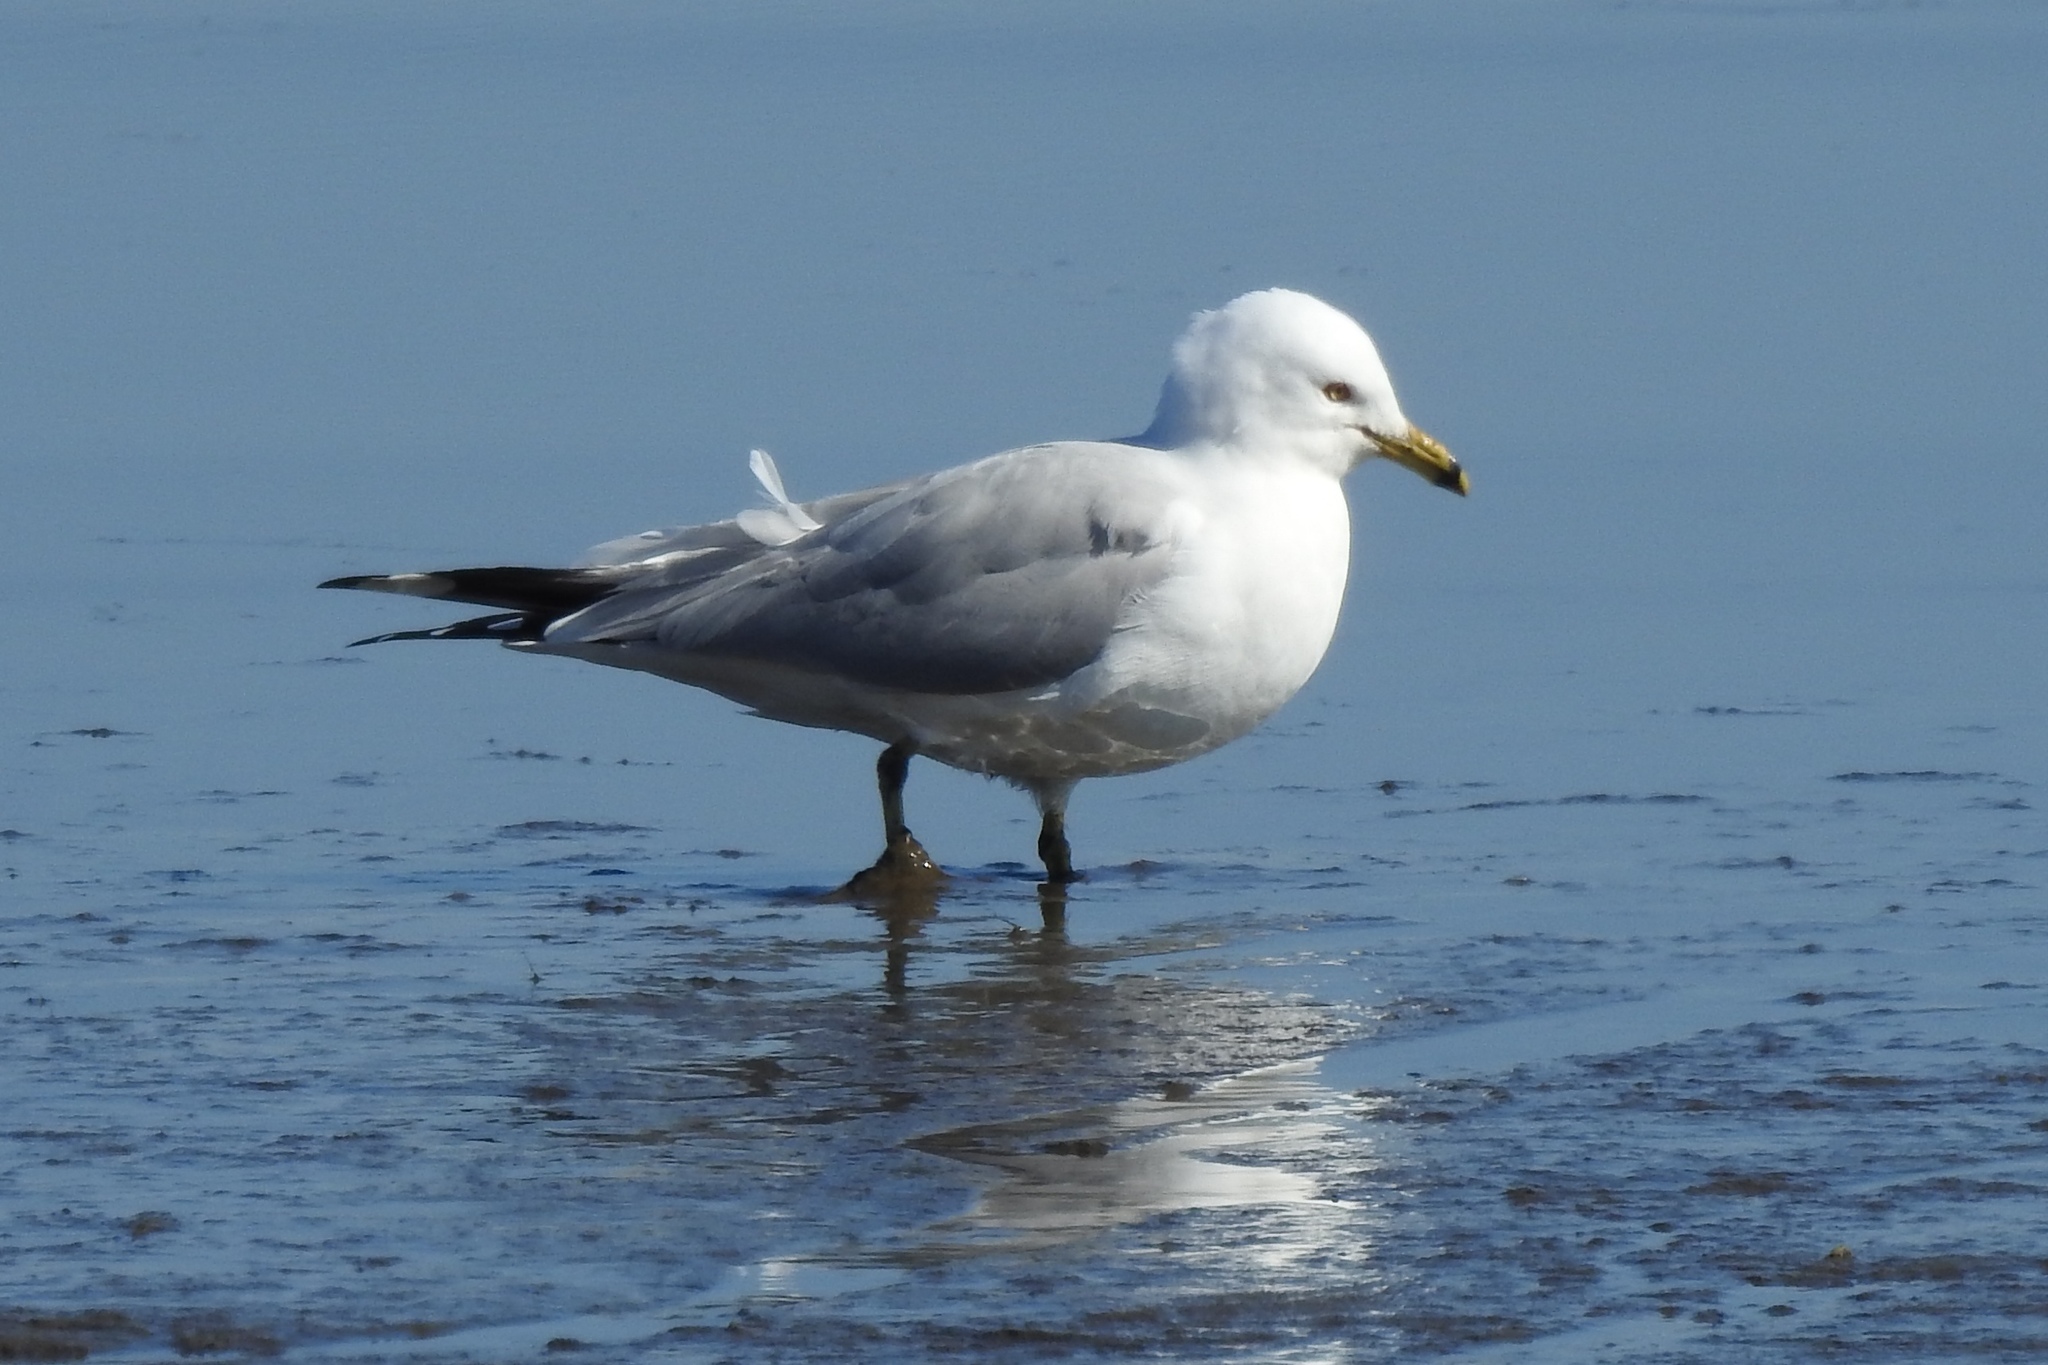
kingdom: Animalia
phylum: Chordata
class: Aves
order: Charadriiformes
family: Laridae
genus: Larus
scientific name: Larus delawarensis
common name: Ring-billed gull
